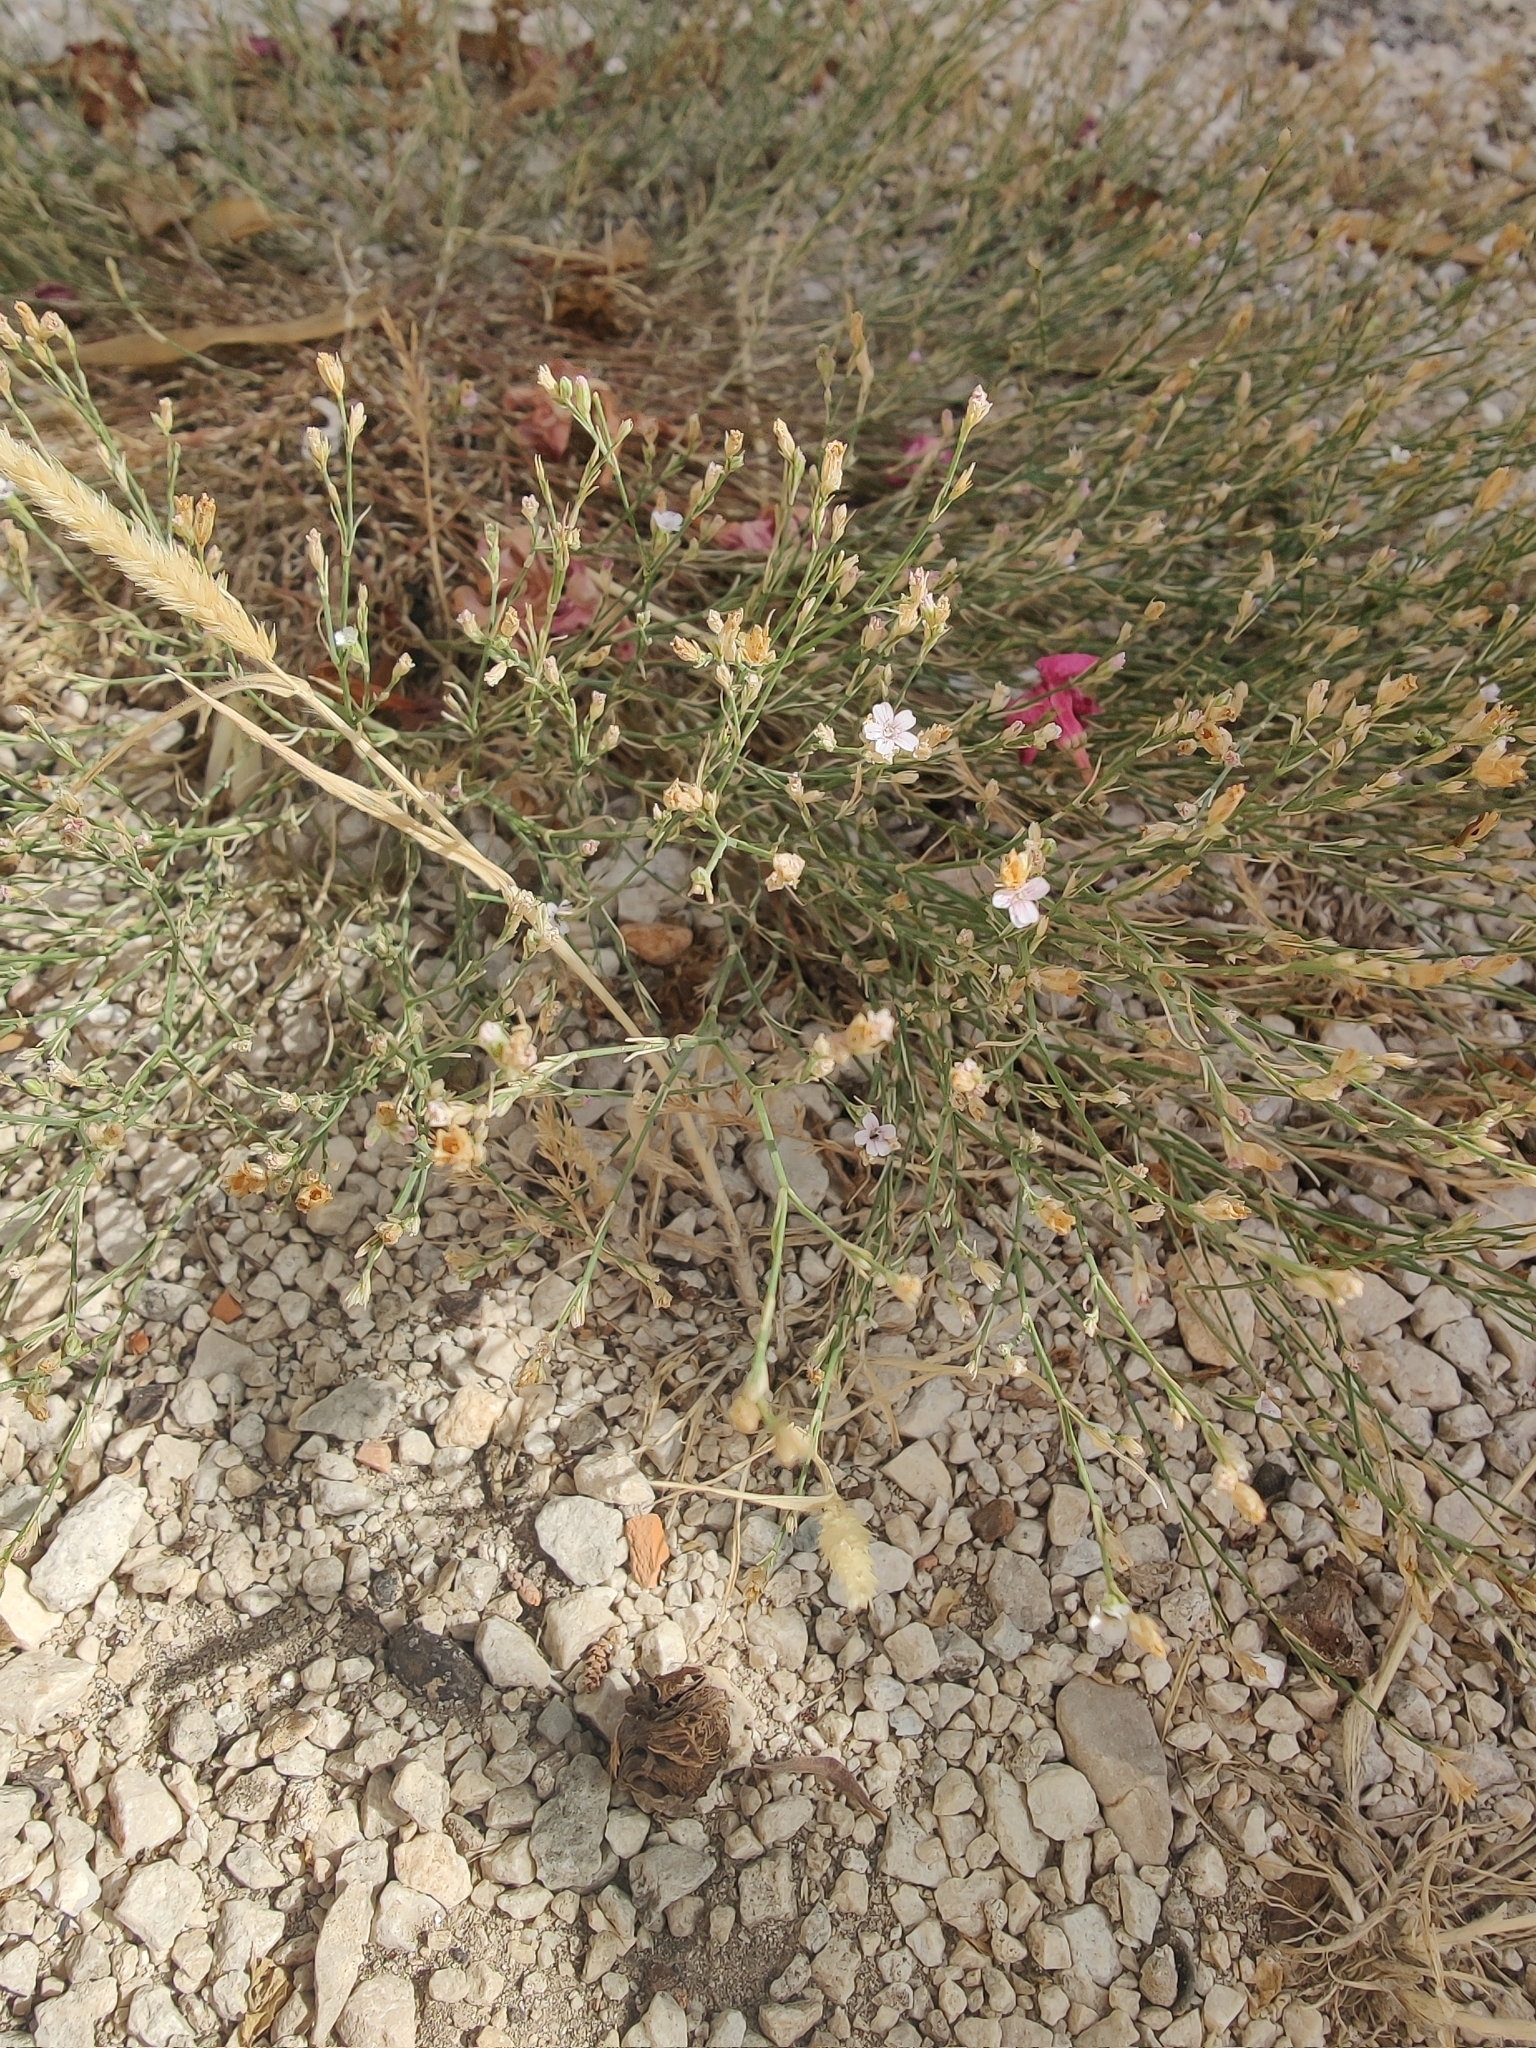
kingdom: Plantae
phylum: Tracheophyta
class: Magnoliopsida
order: Caryophyllales
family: Caryophyllaceae
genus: Petrorhagia
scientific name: Petrorhagia saxifraga
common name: Tunicflower
